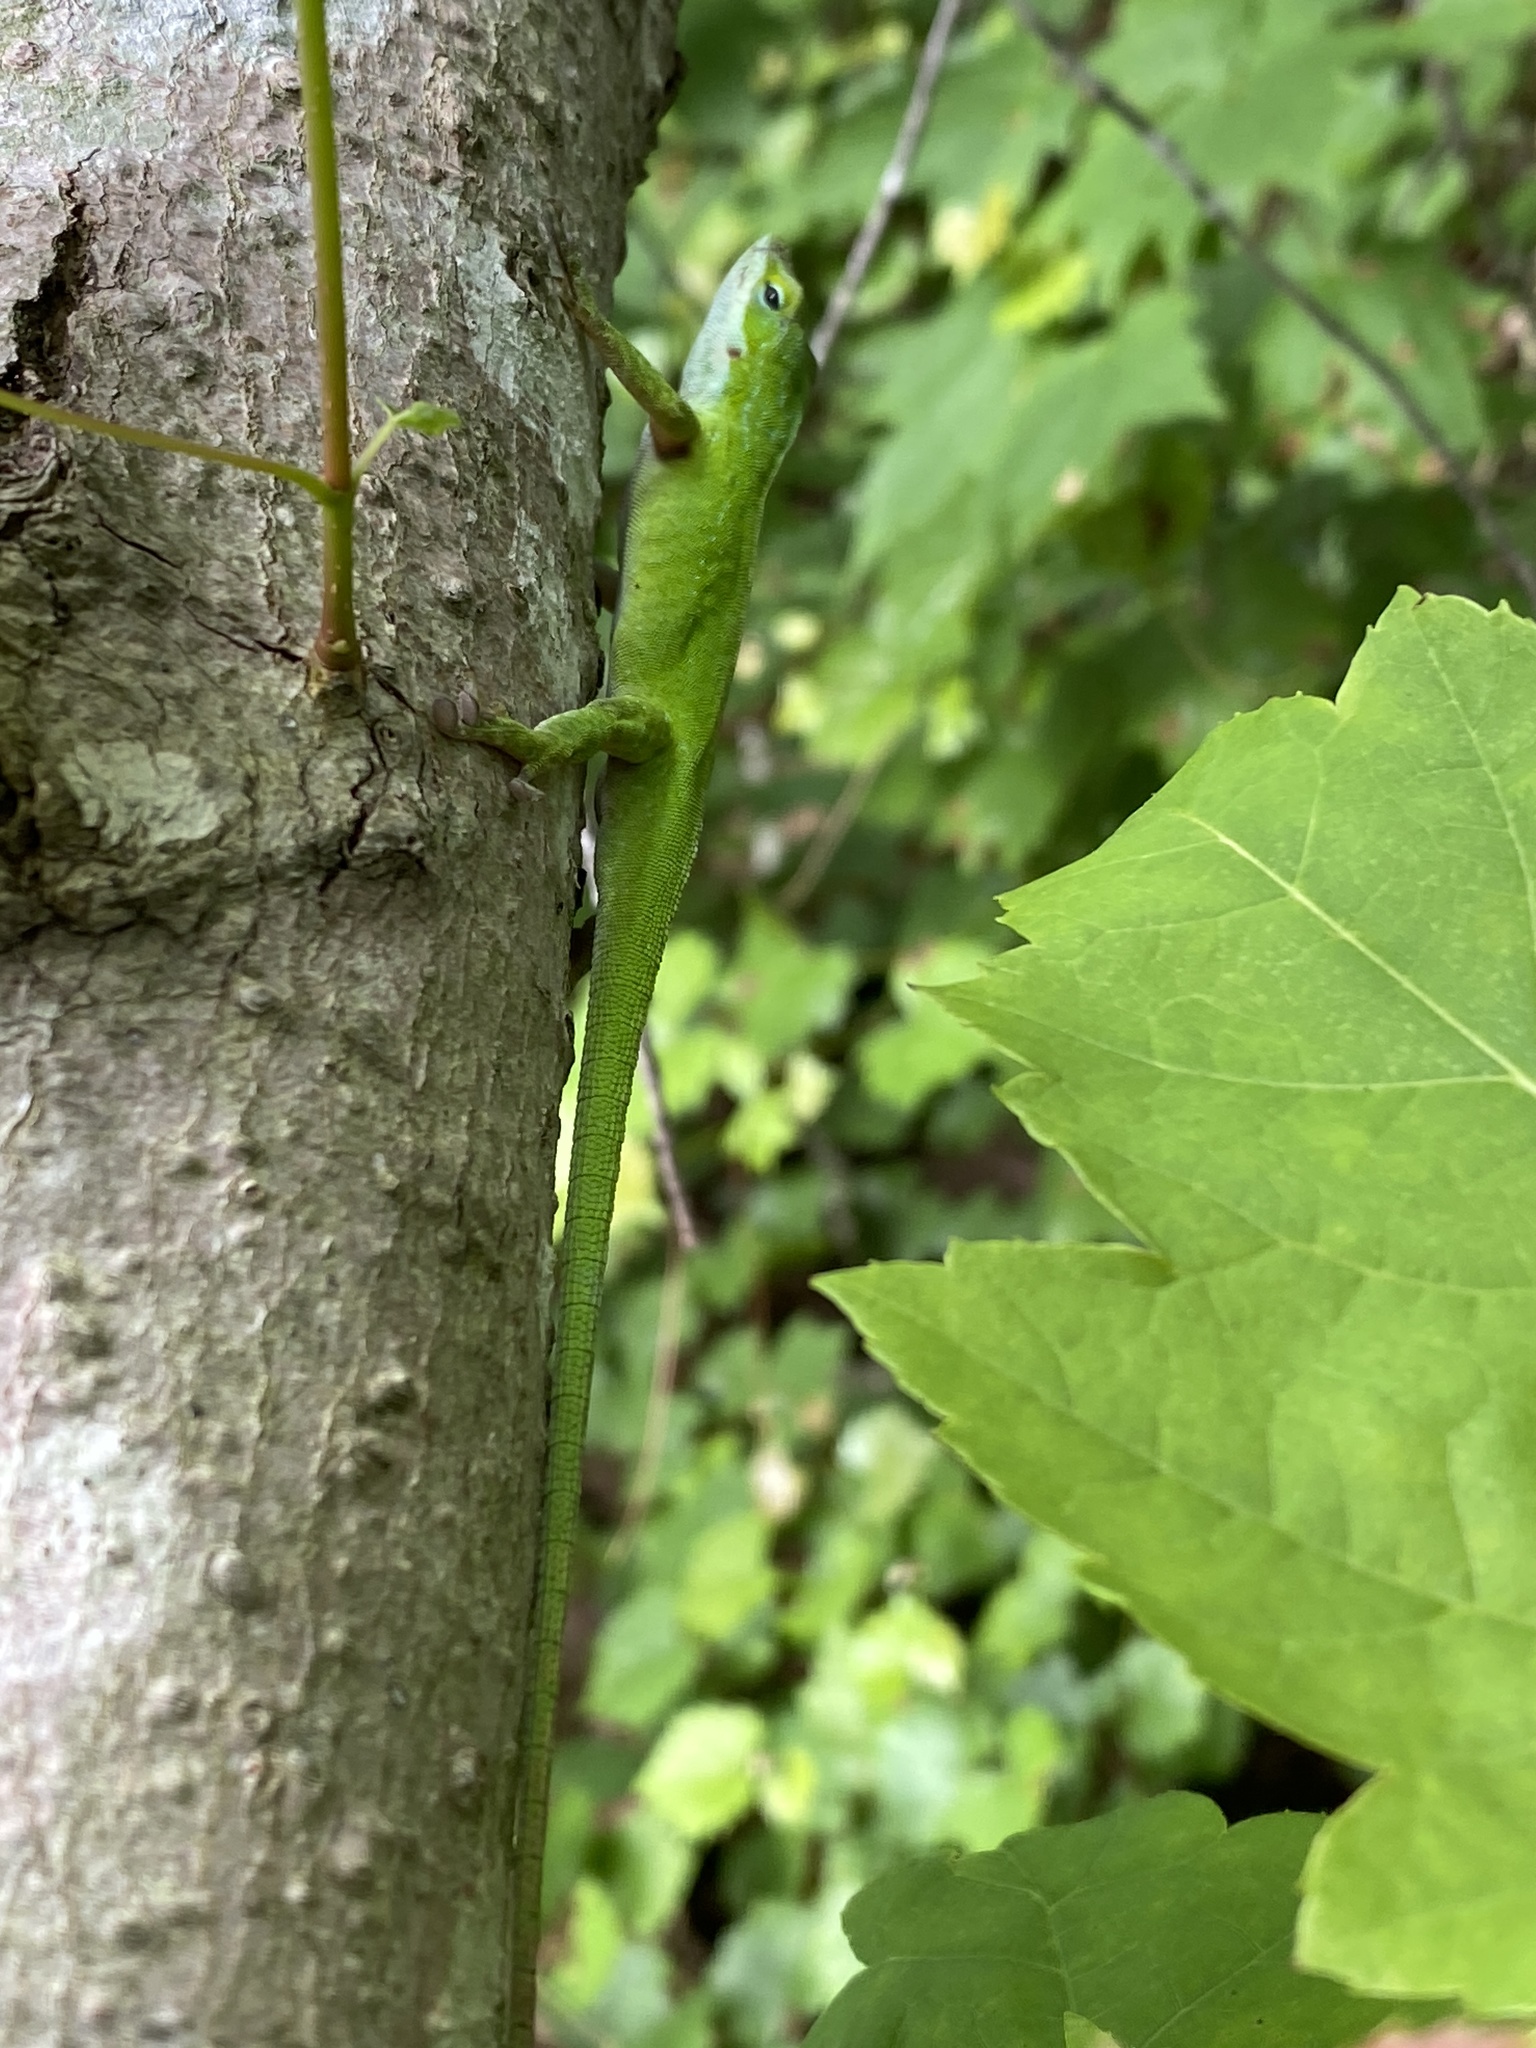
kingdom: Animalia
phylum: Chordata
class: Squamata
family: Dactyloidae
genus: Anolis
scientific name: Anolis carolinensis
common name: Green anole
